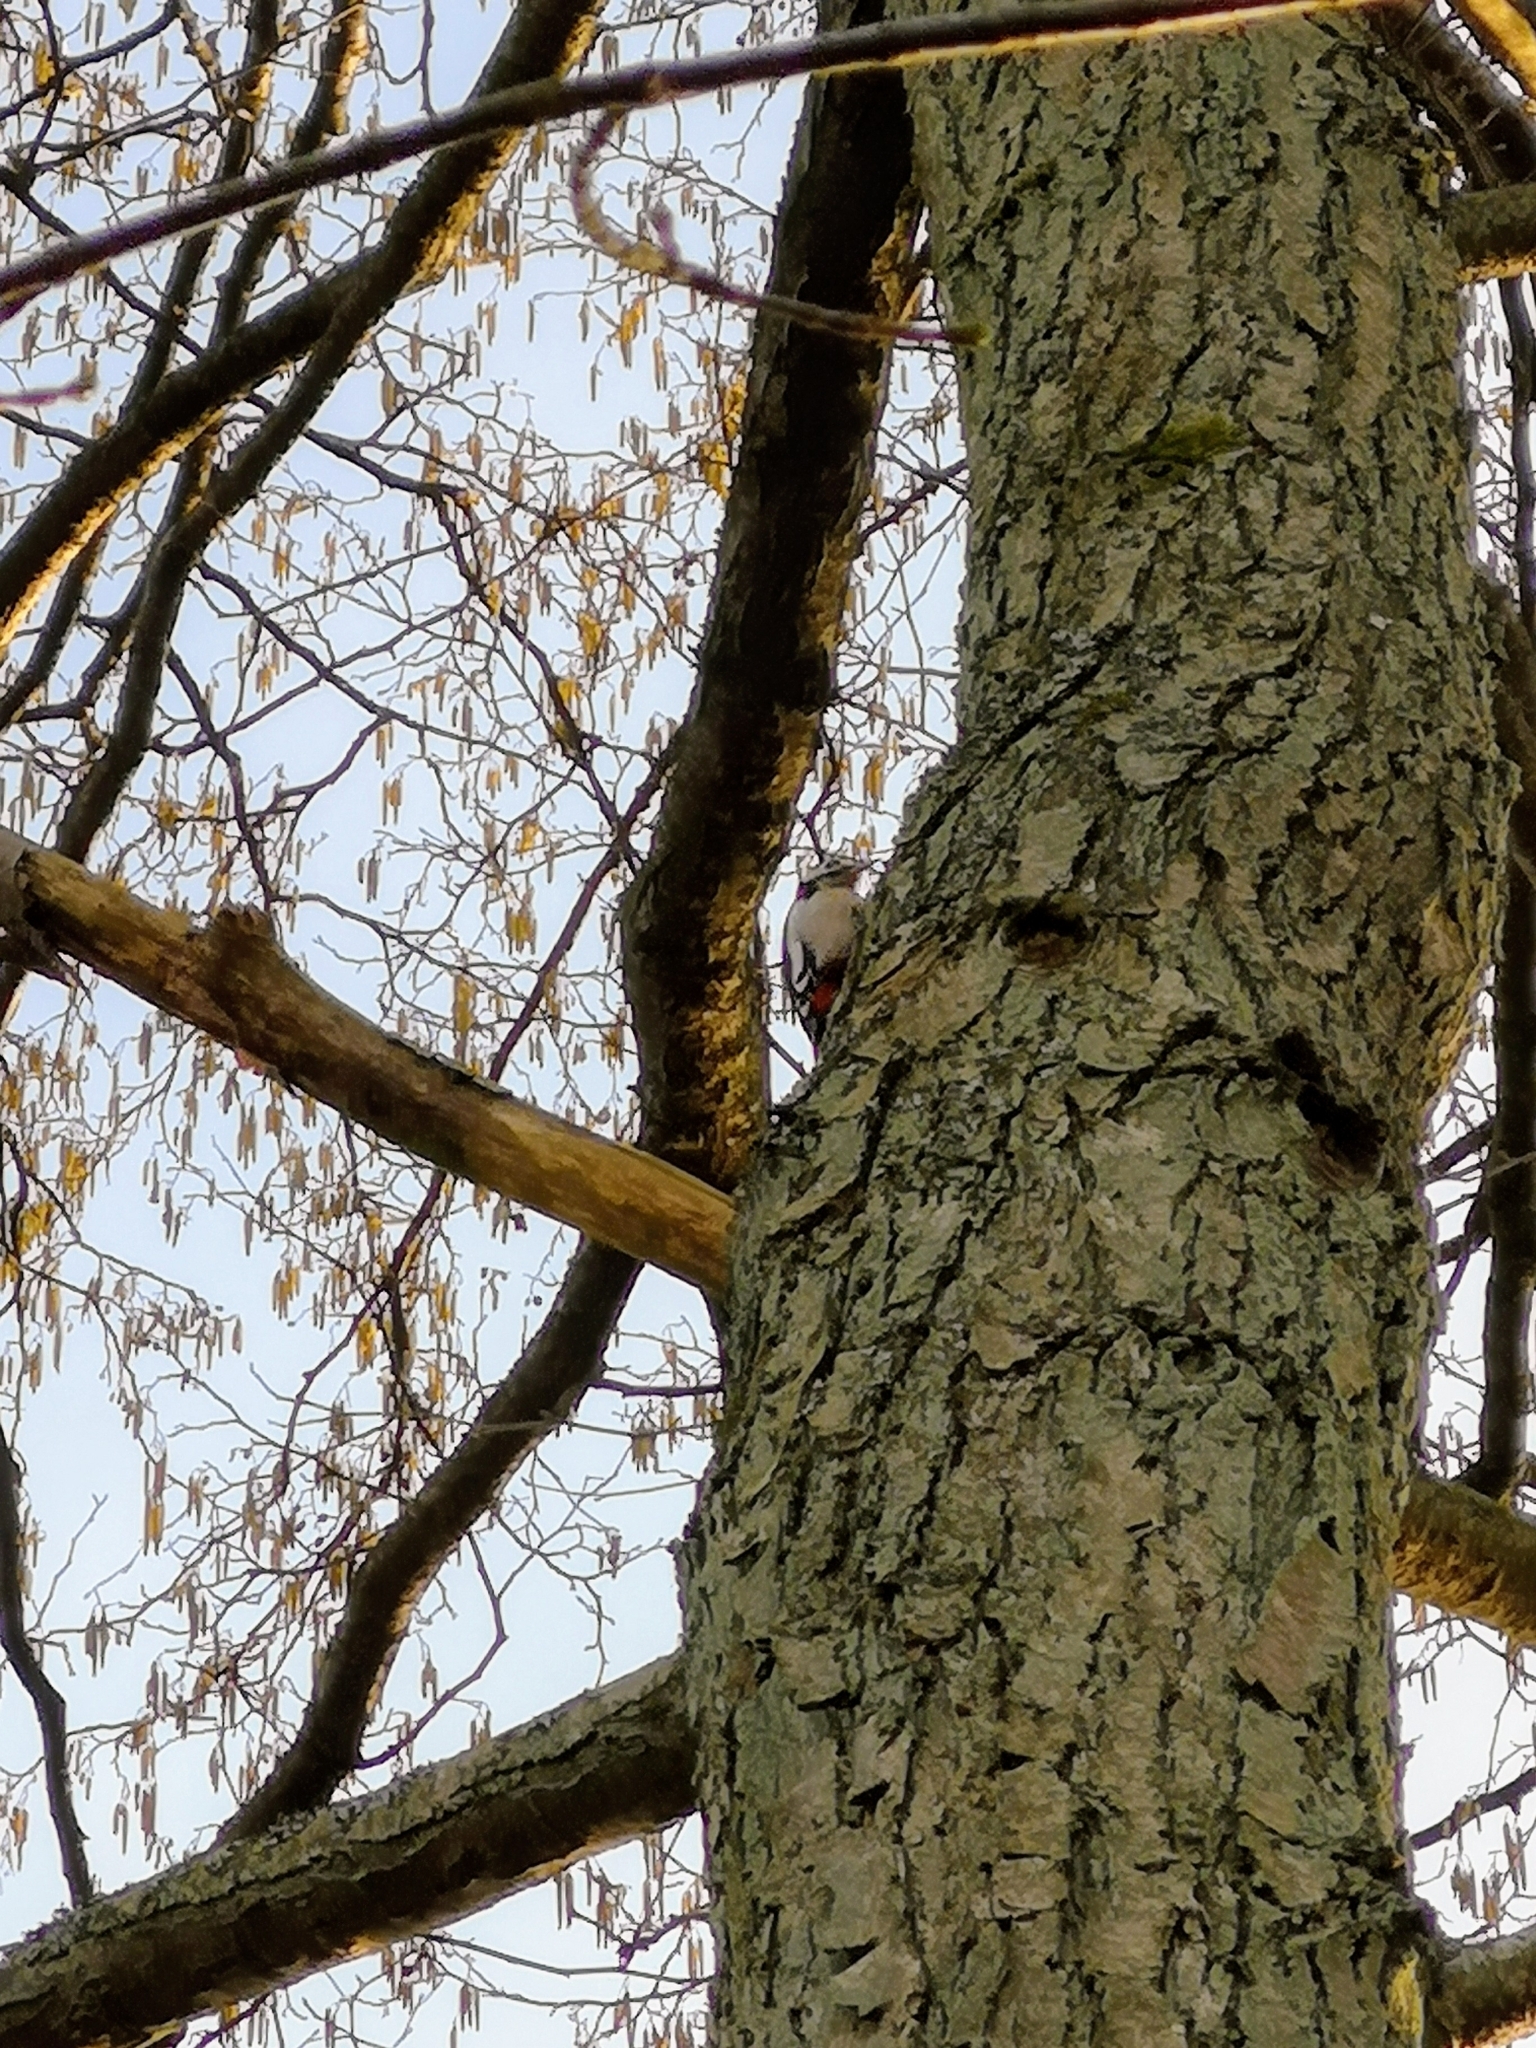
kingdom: Animalia
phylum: Chordata
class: Aves
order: Piciformes
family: Picidae
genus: Dendrocopos
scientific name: Dendrocopos major
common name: Great spotted woodpecker
